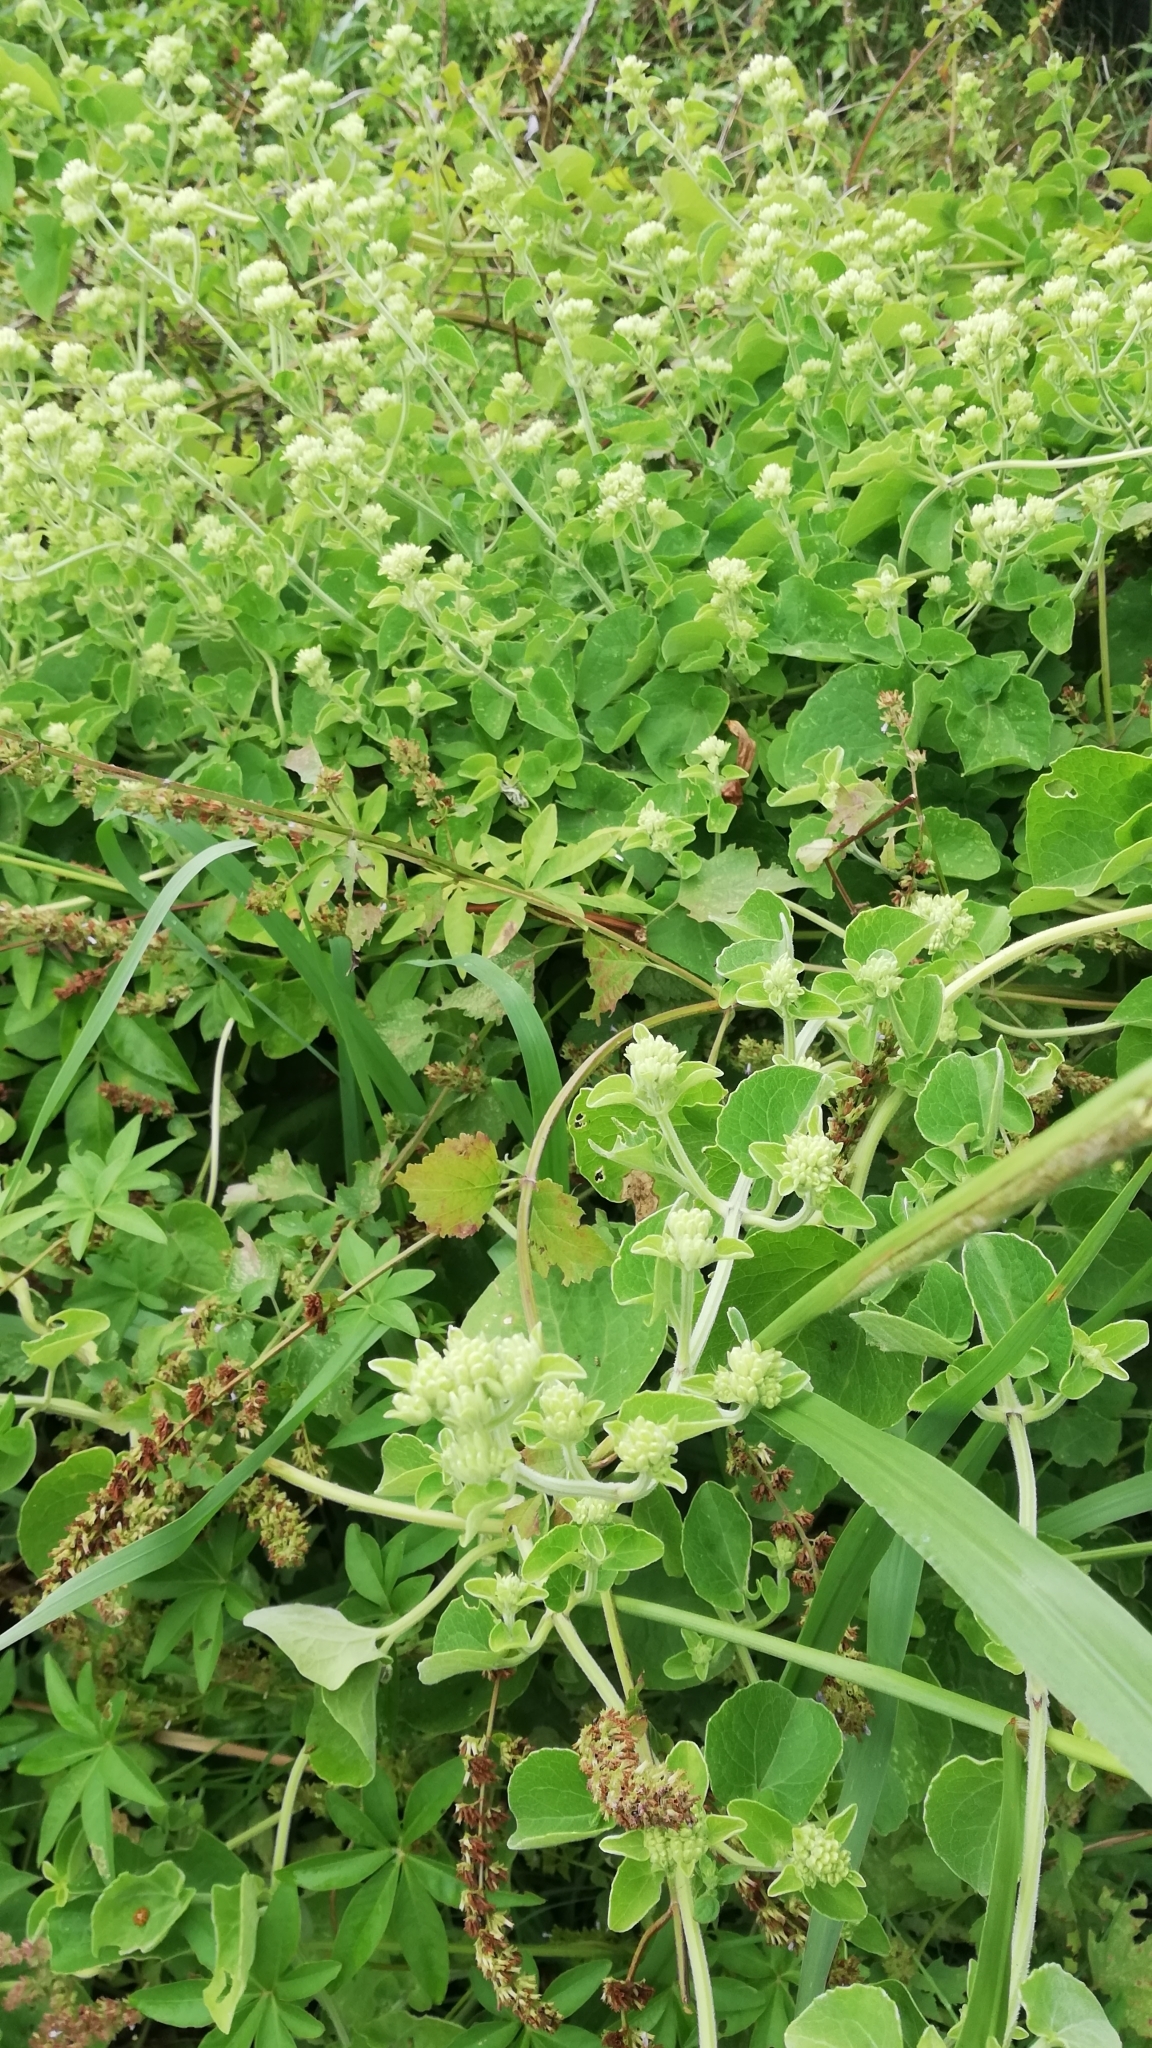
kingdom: Plantae
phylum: Tracheophyta
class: Magnoliopsida
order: Asterales
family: Asteraceae
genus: Mikania
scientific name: Mikania cordifolia
